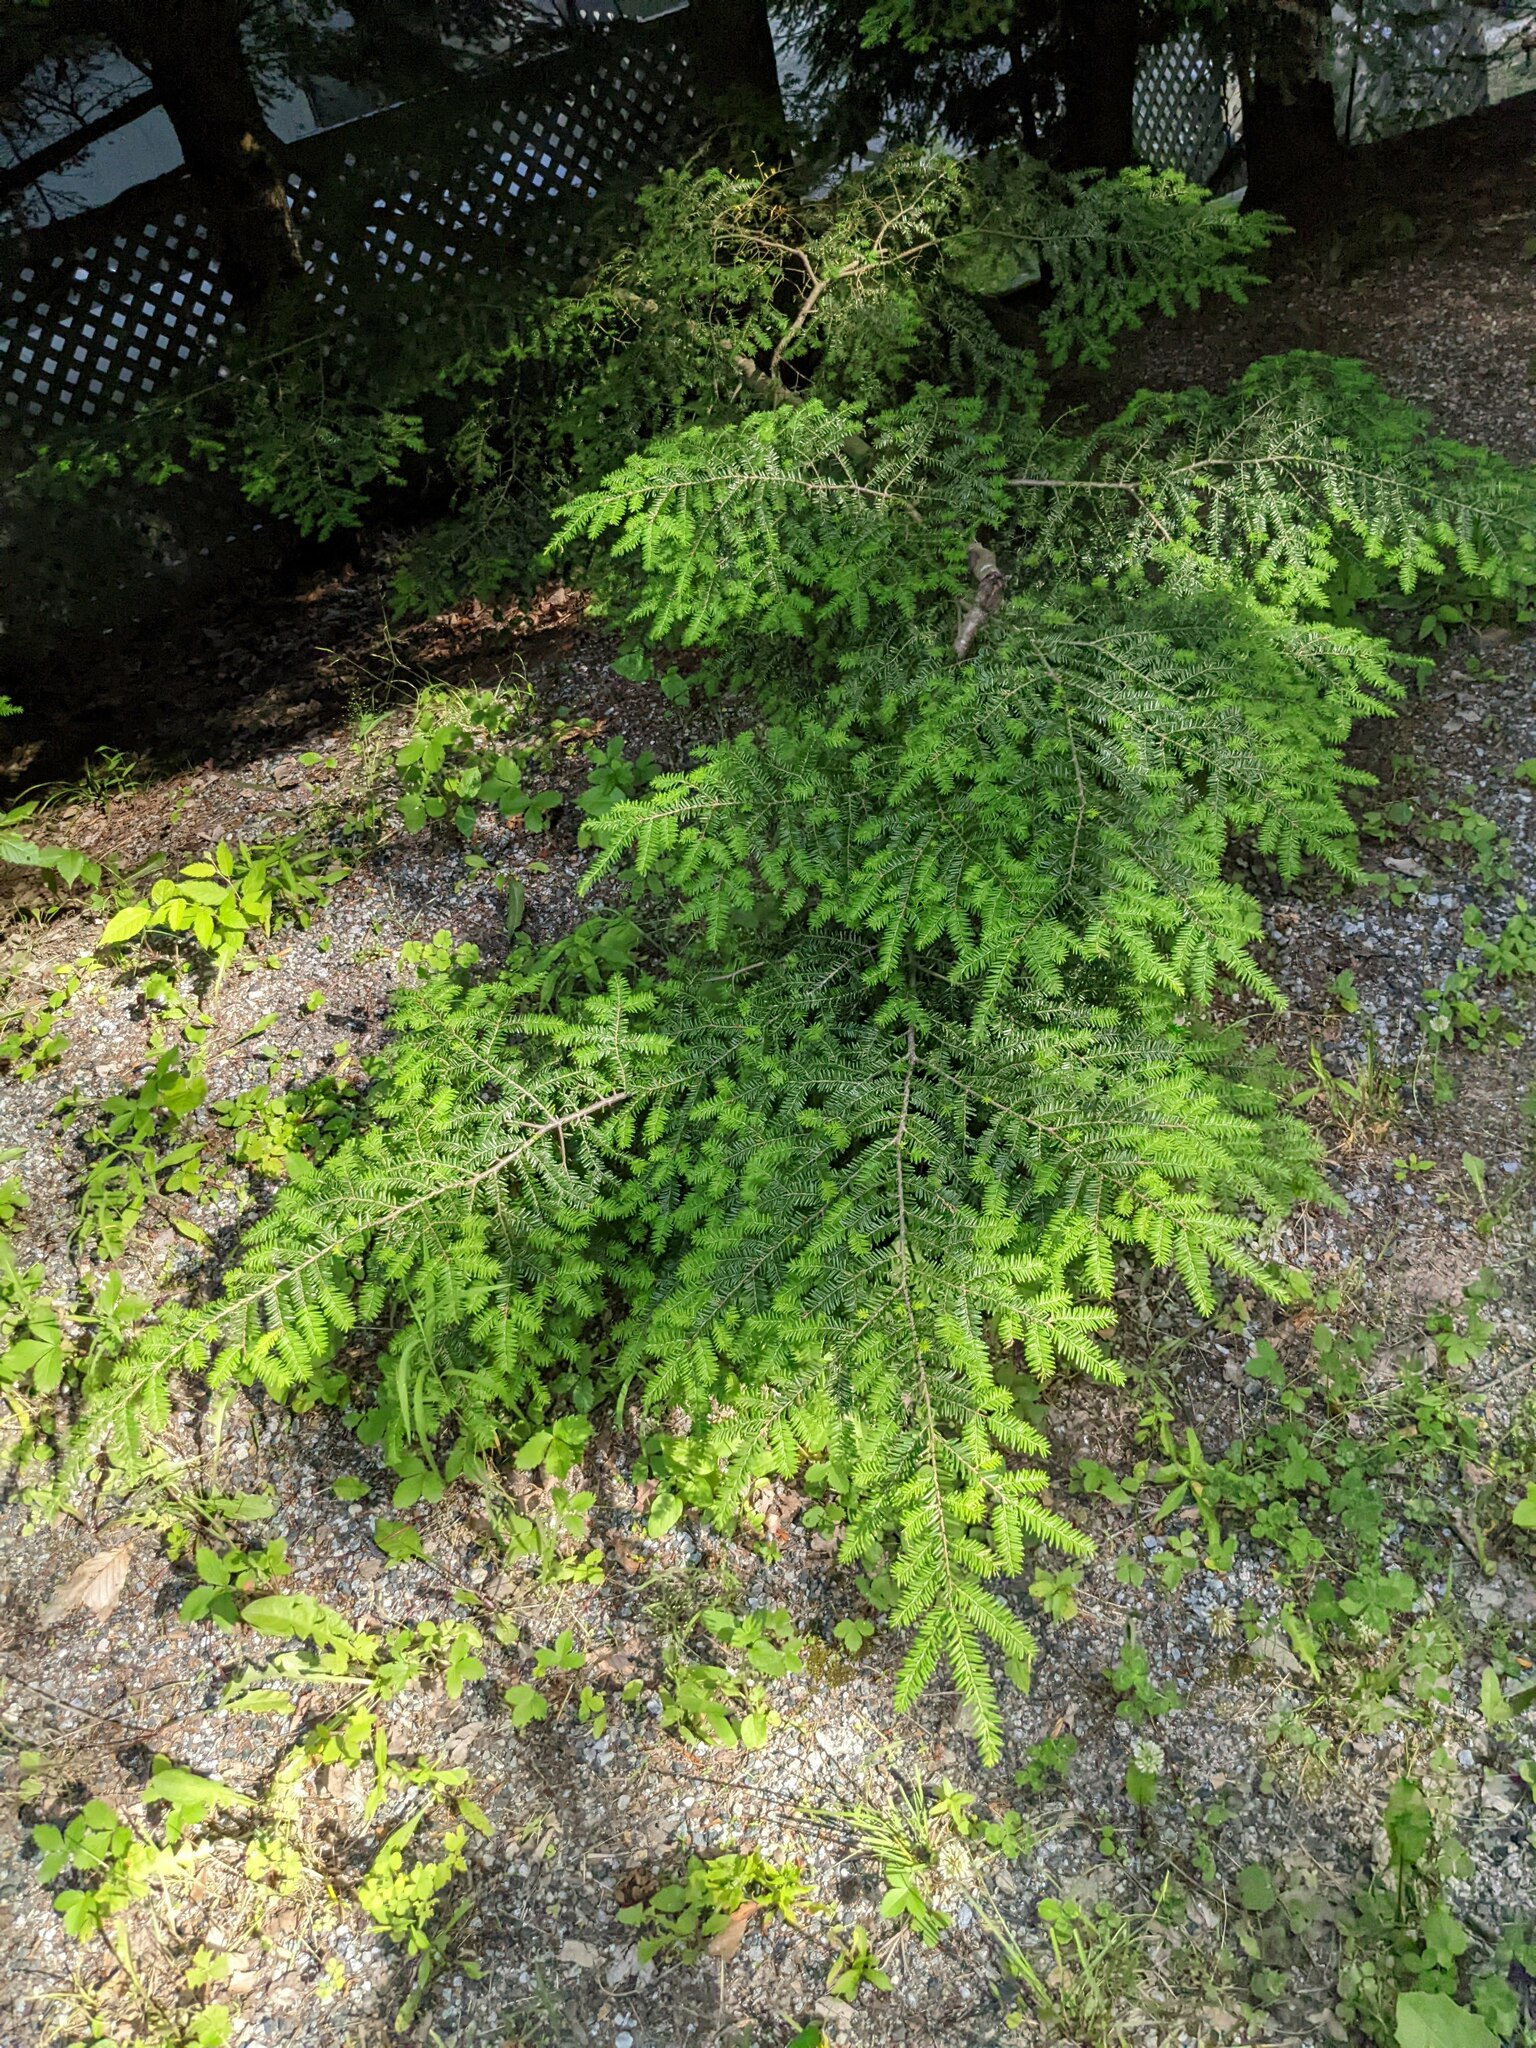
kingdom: Plantae
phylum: Tracheophyta
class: Pinopsida
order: Pinales
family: Pinaceae
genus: Tsuga
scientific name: Tsuga canadensis
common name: Eastern hemlock
